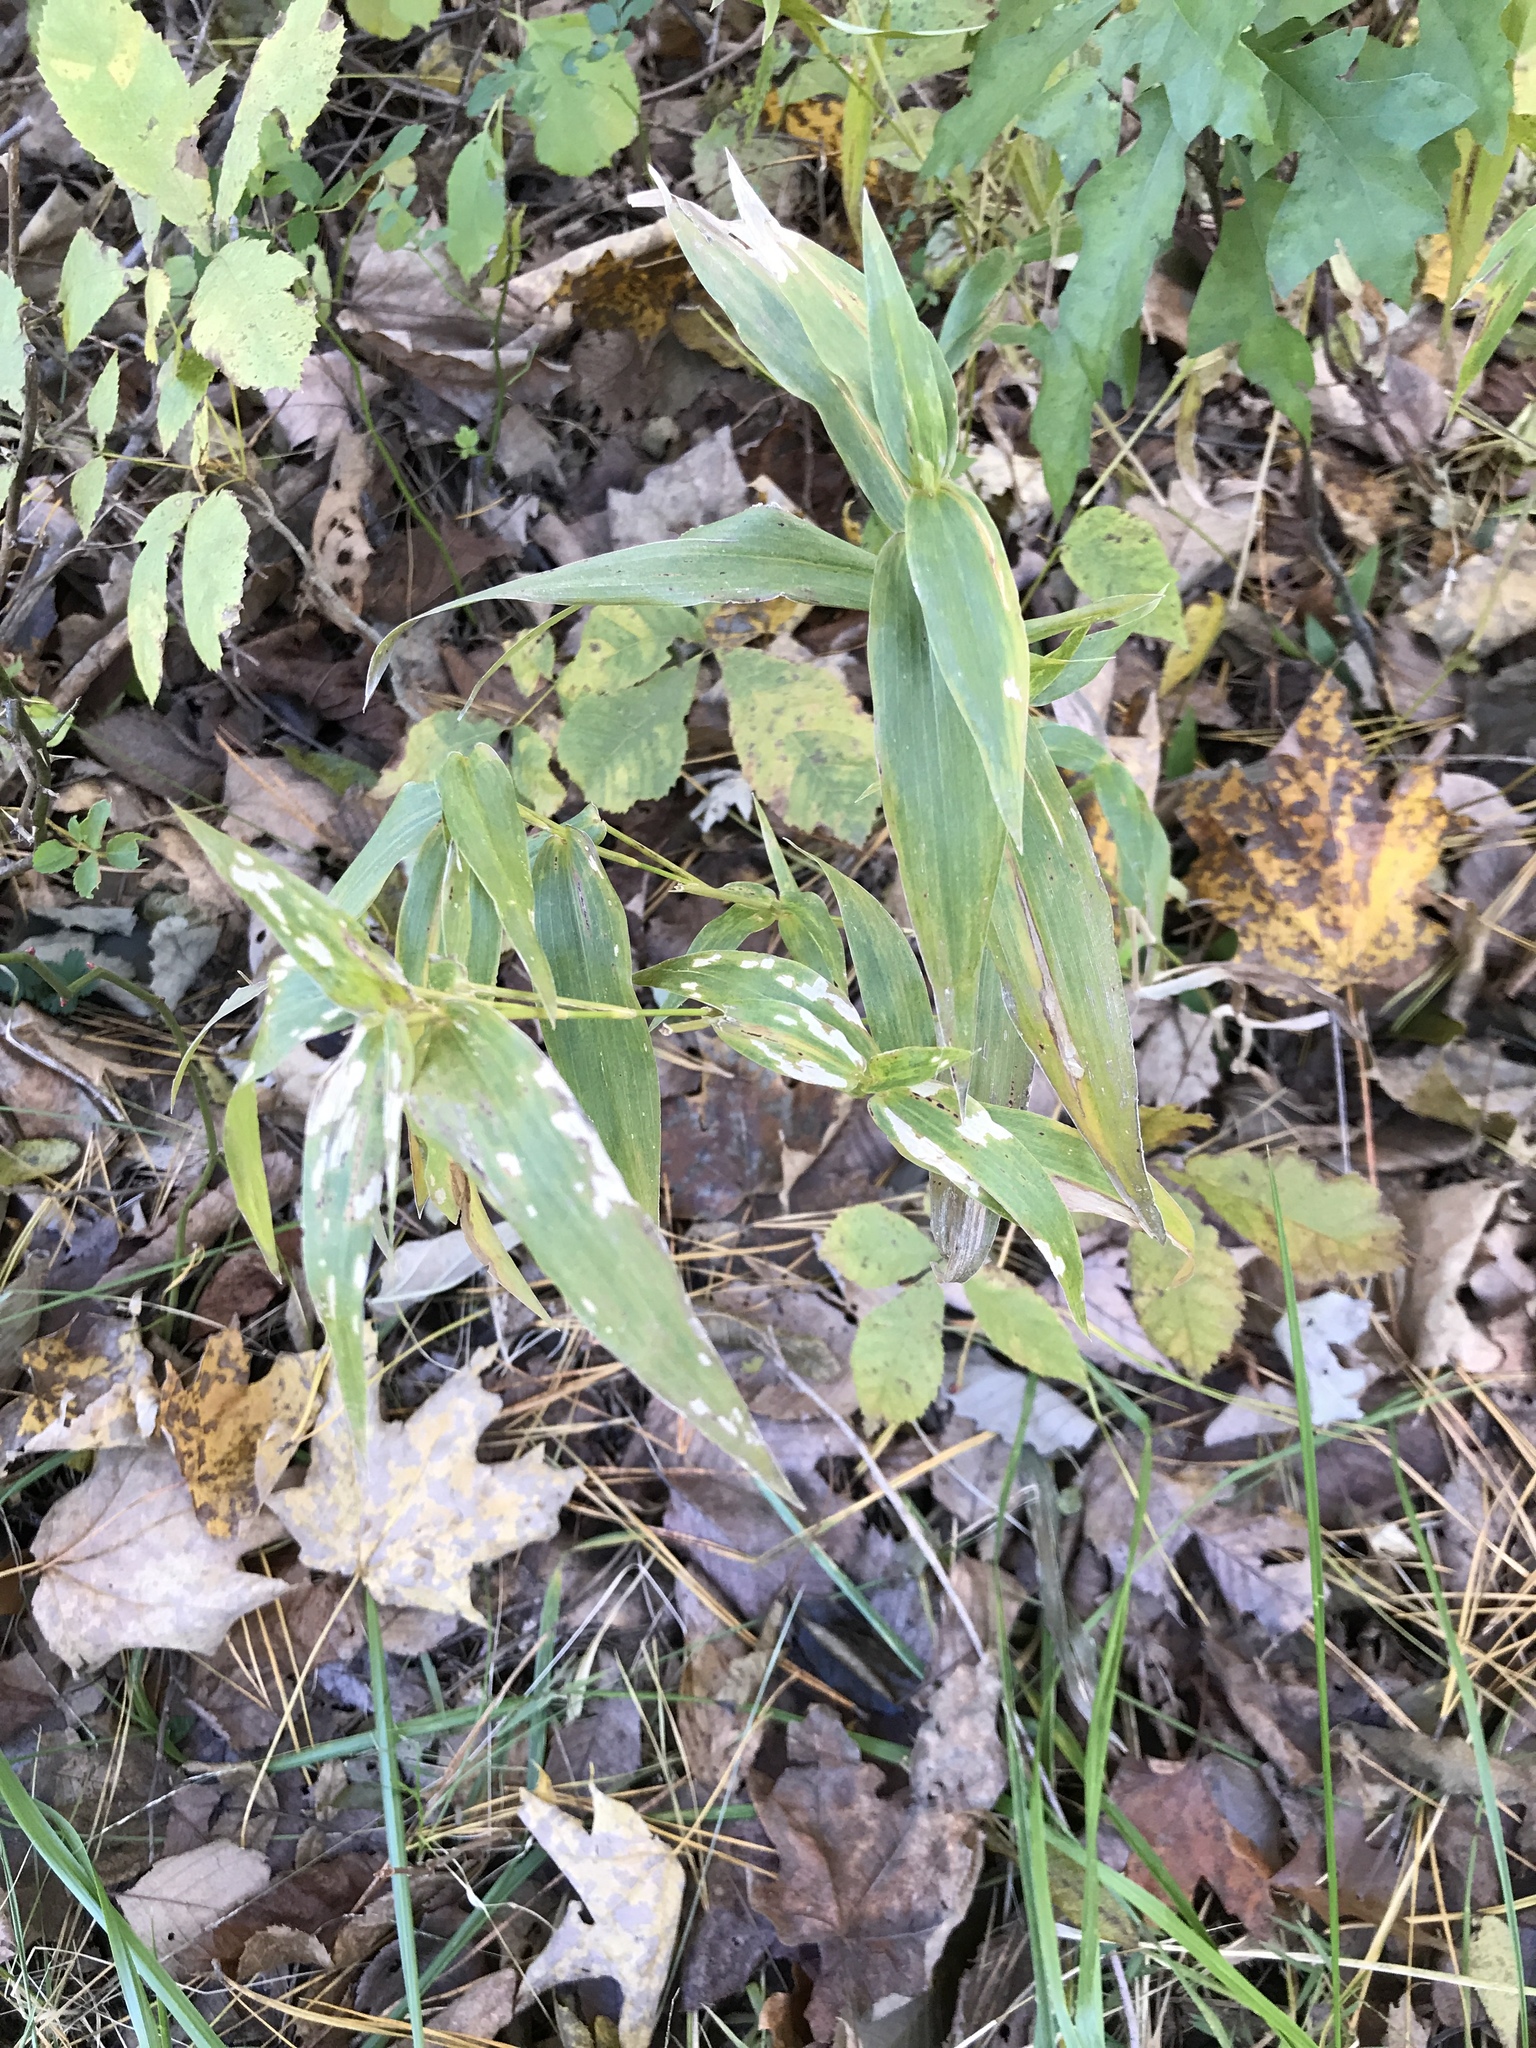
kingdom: Plantae
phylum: Tracheophyta
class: Liliopsida
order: Poales
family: Poaceae
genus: Dichanthelium
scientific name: Dichanthelium clandestinum
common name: Deer-tongue grass
